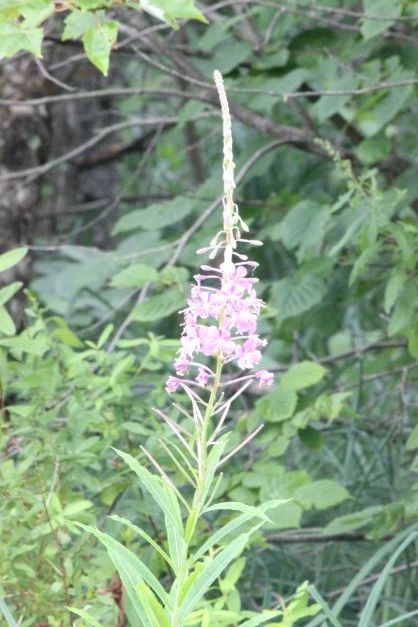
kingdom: Plantae
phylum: Tracheophyta
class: Magnoliopsida
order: Myrtales
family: Onagraceae
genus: Chamaenerion
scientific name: Chamaenerion angustifolium
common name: Fireweed
